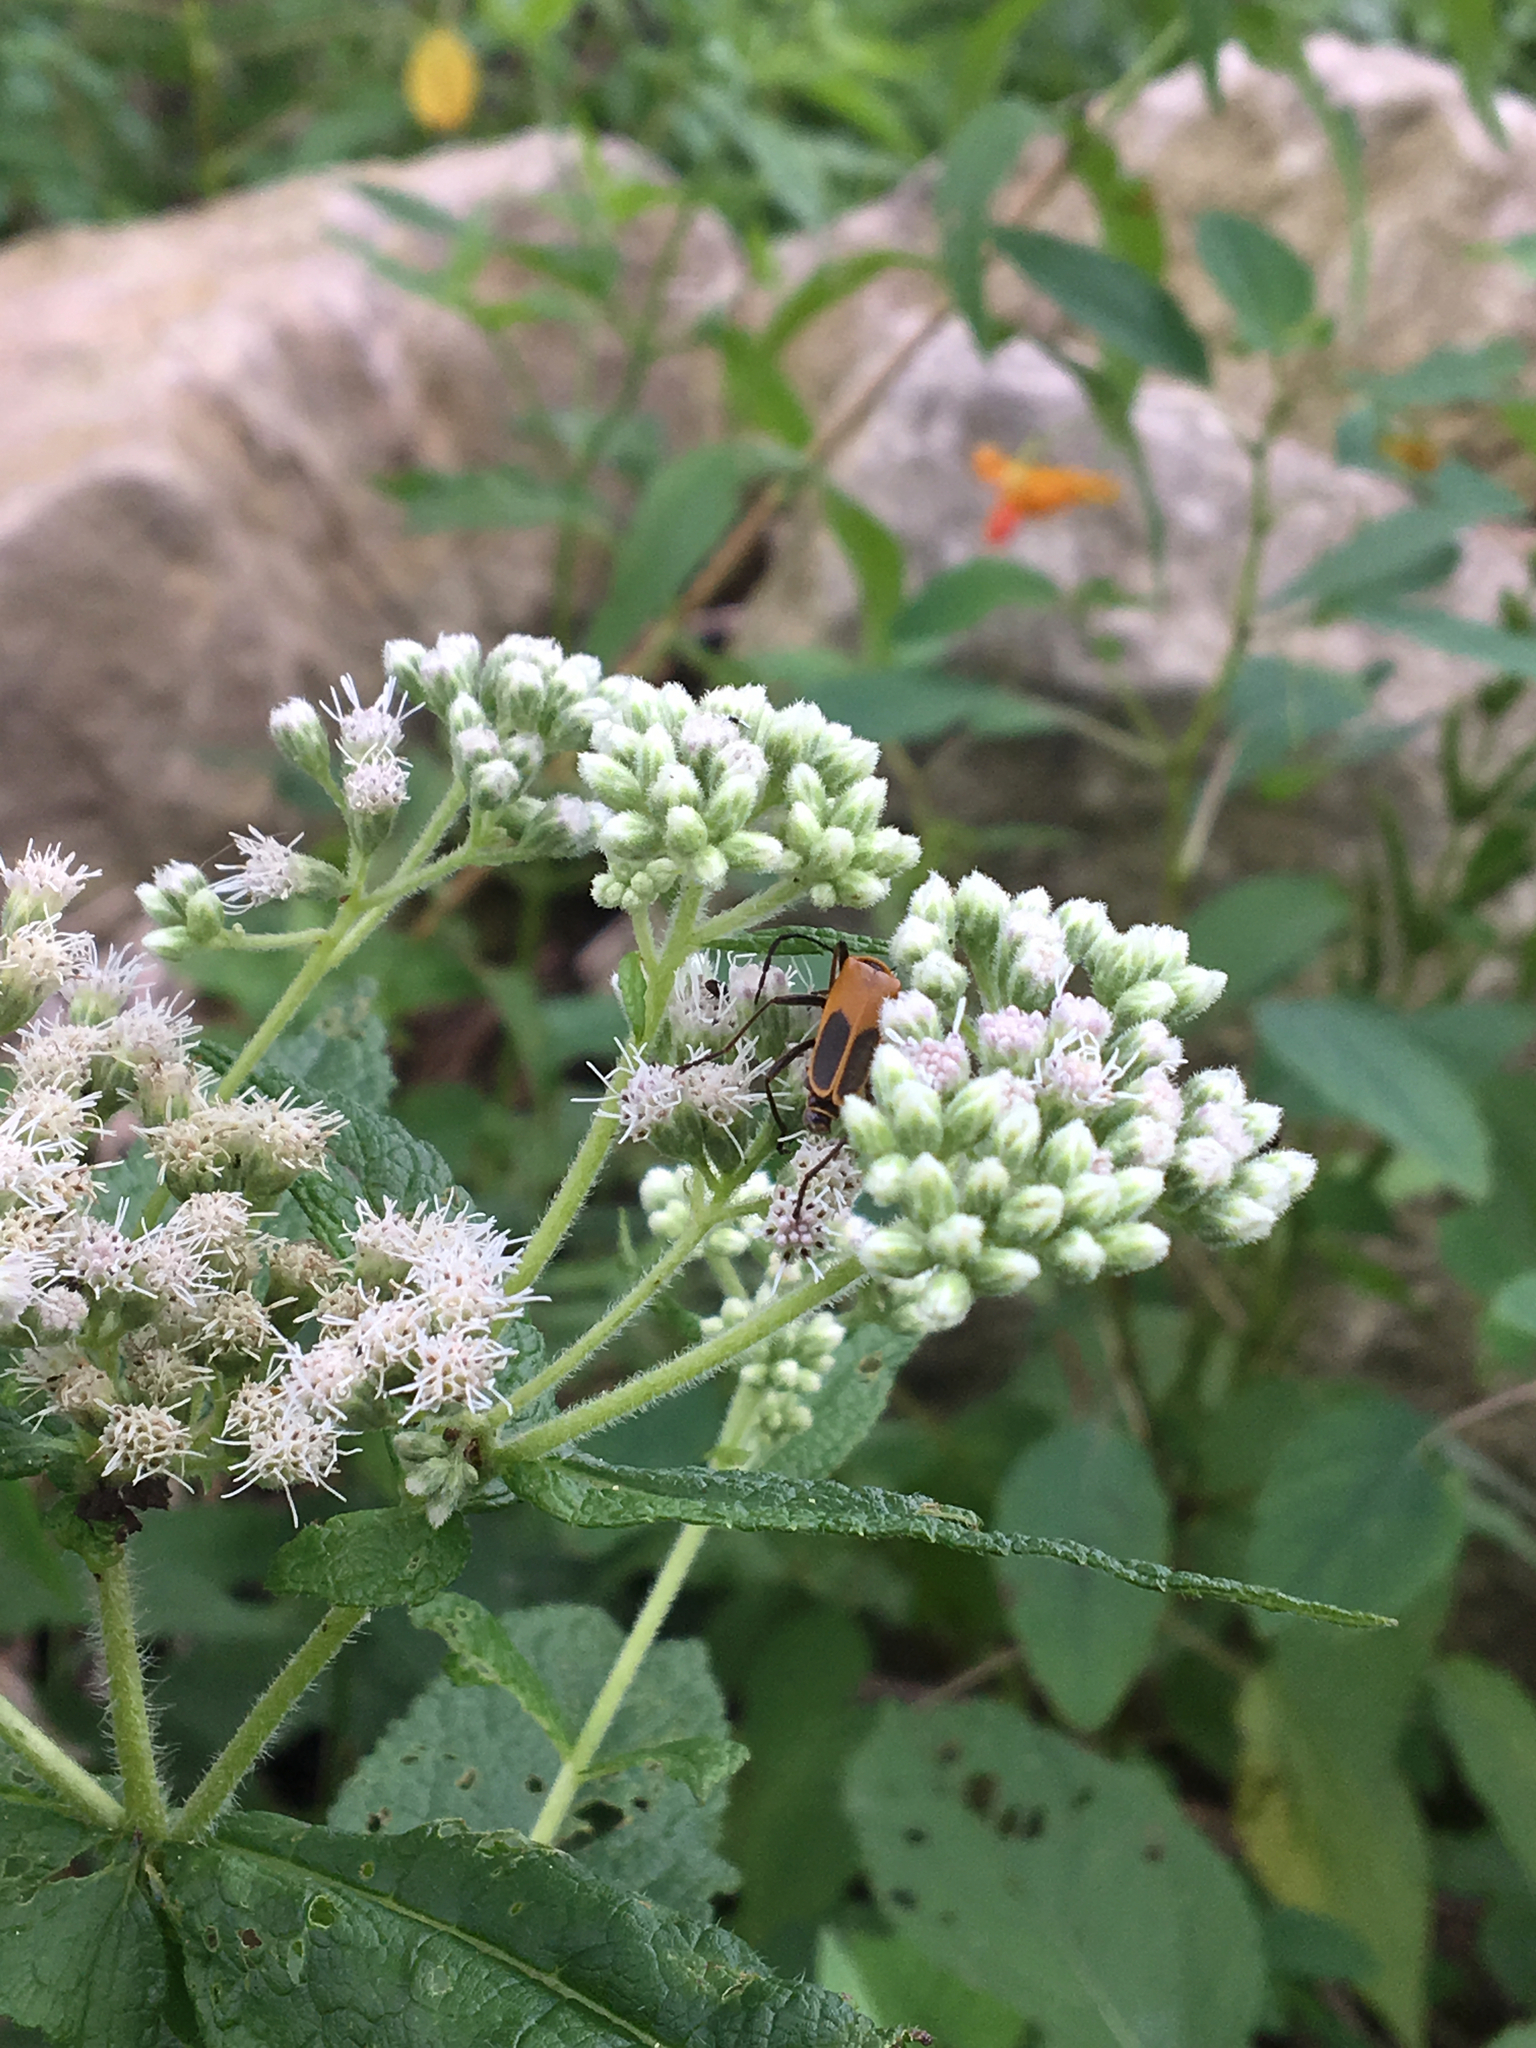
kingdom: Animalia
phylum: Arthropoda
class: Insecta
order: Coleoptera
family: Cantharidae
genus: Chauliognathus
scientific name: Chauliognathus pensylvanicus
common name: Goldenrod soldier beetle
